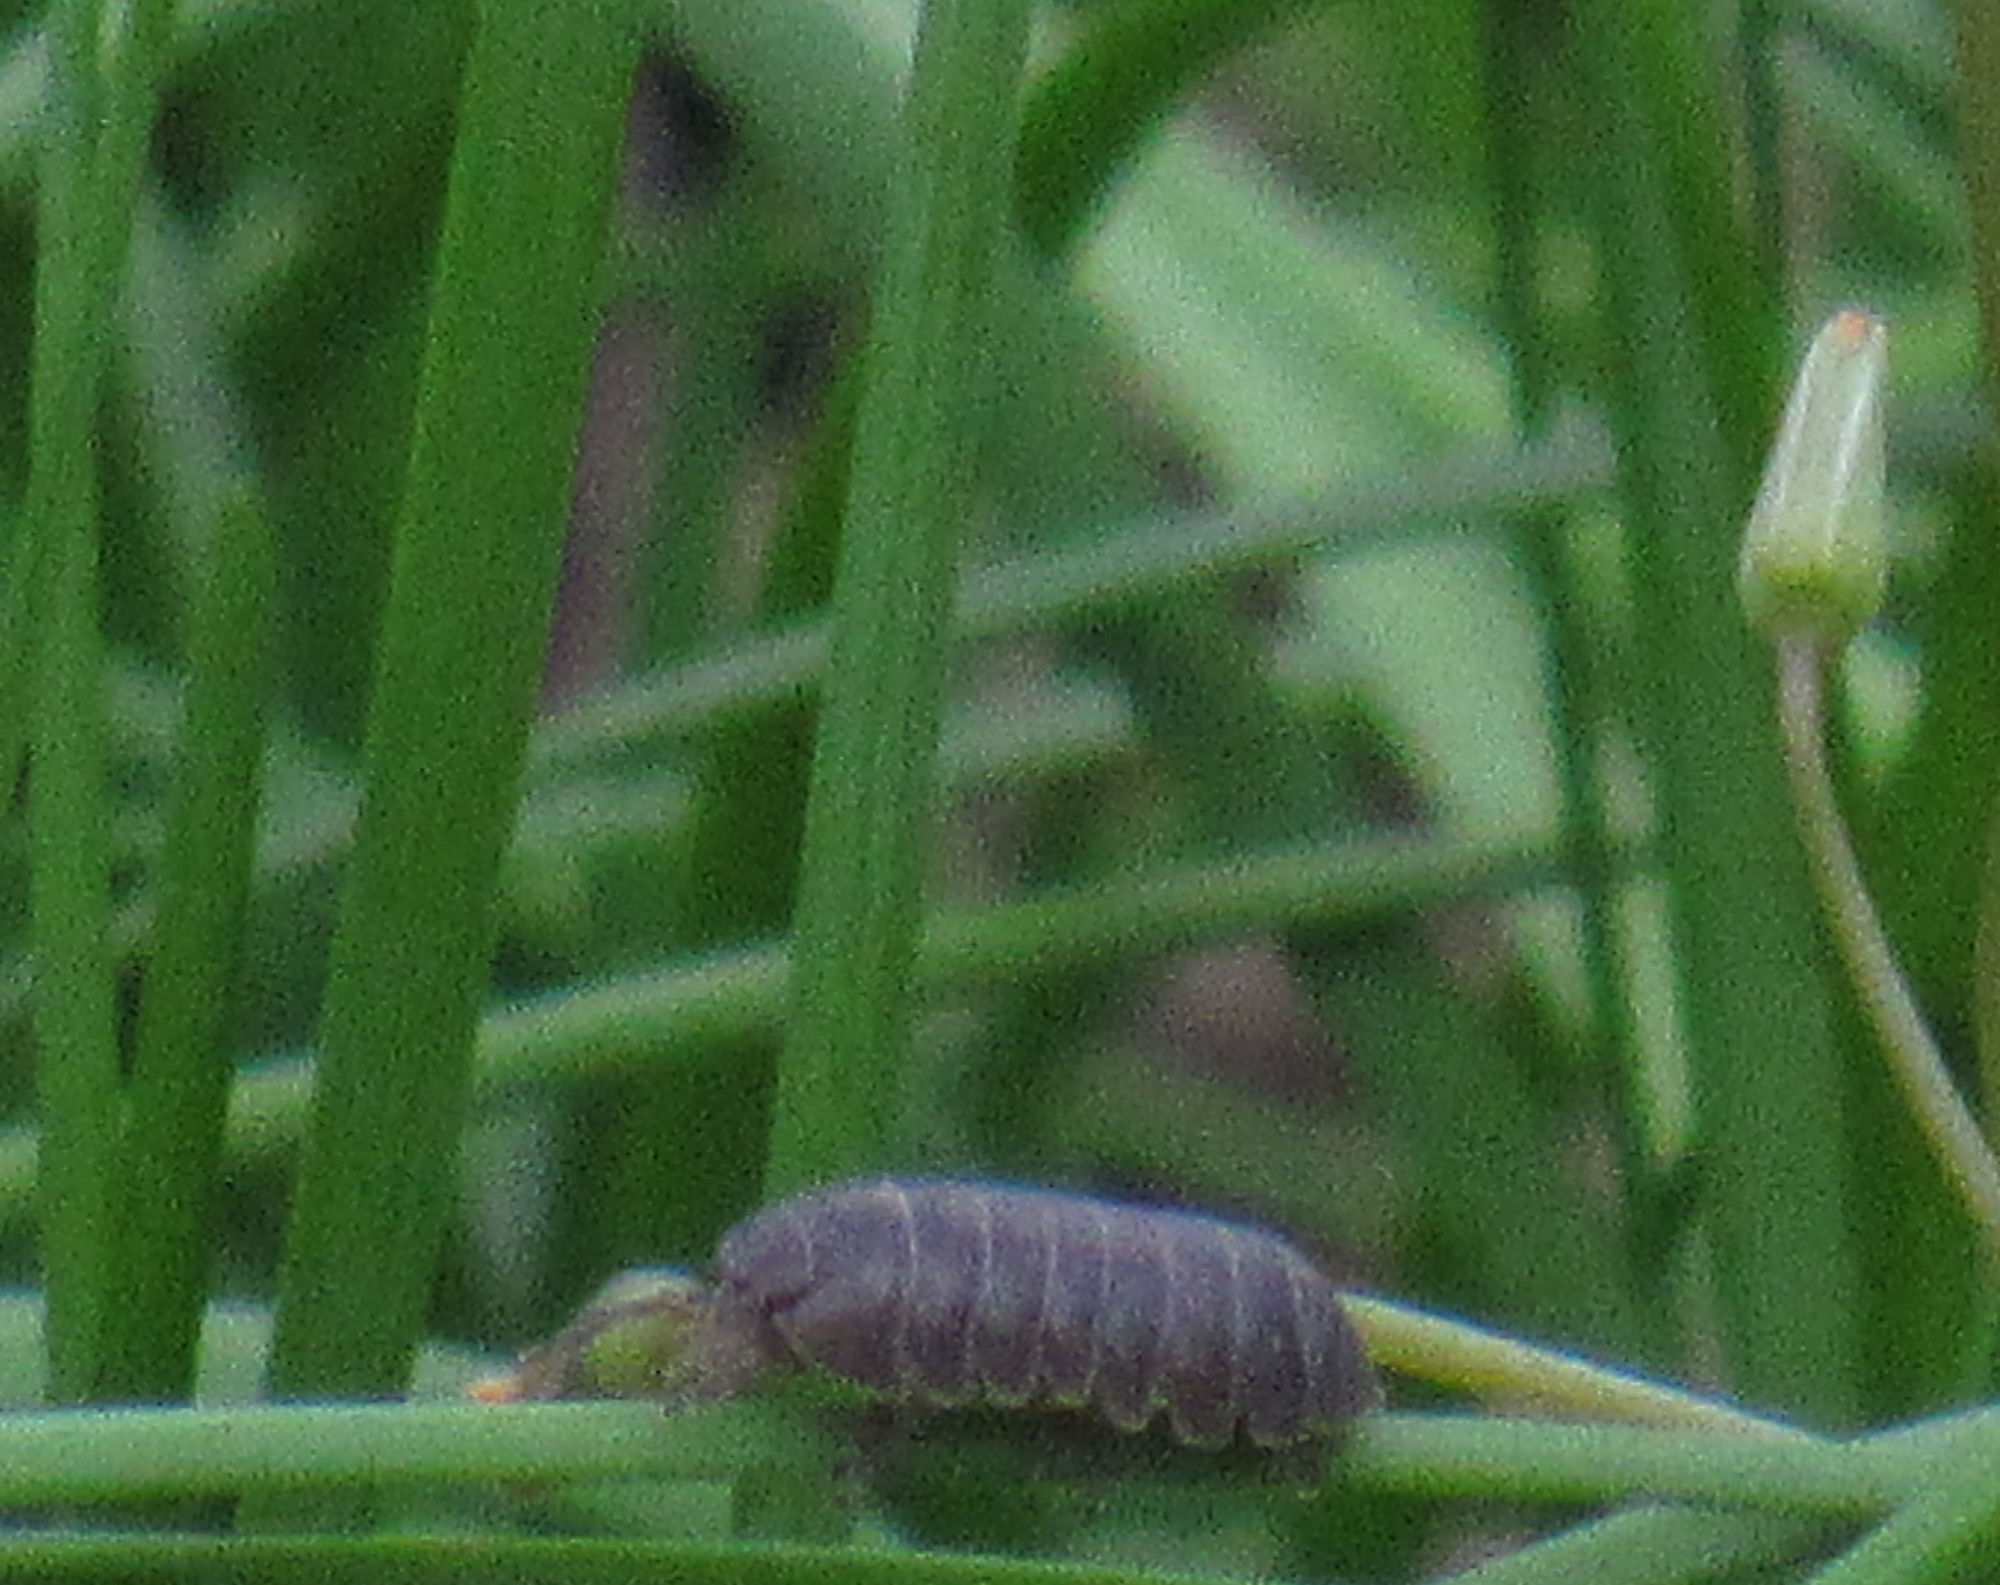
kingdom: Animalia
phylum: Arthropoda
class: Malacostraca
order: Isopoda
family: Armadillidiidae
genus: Armadillidium
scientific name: Armadillidium vulgare
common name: Common pill woodlouse
